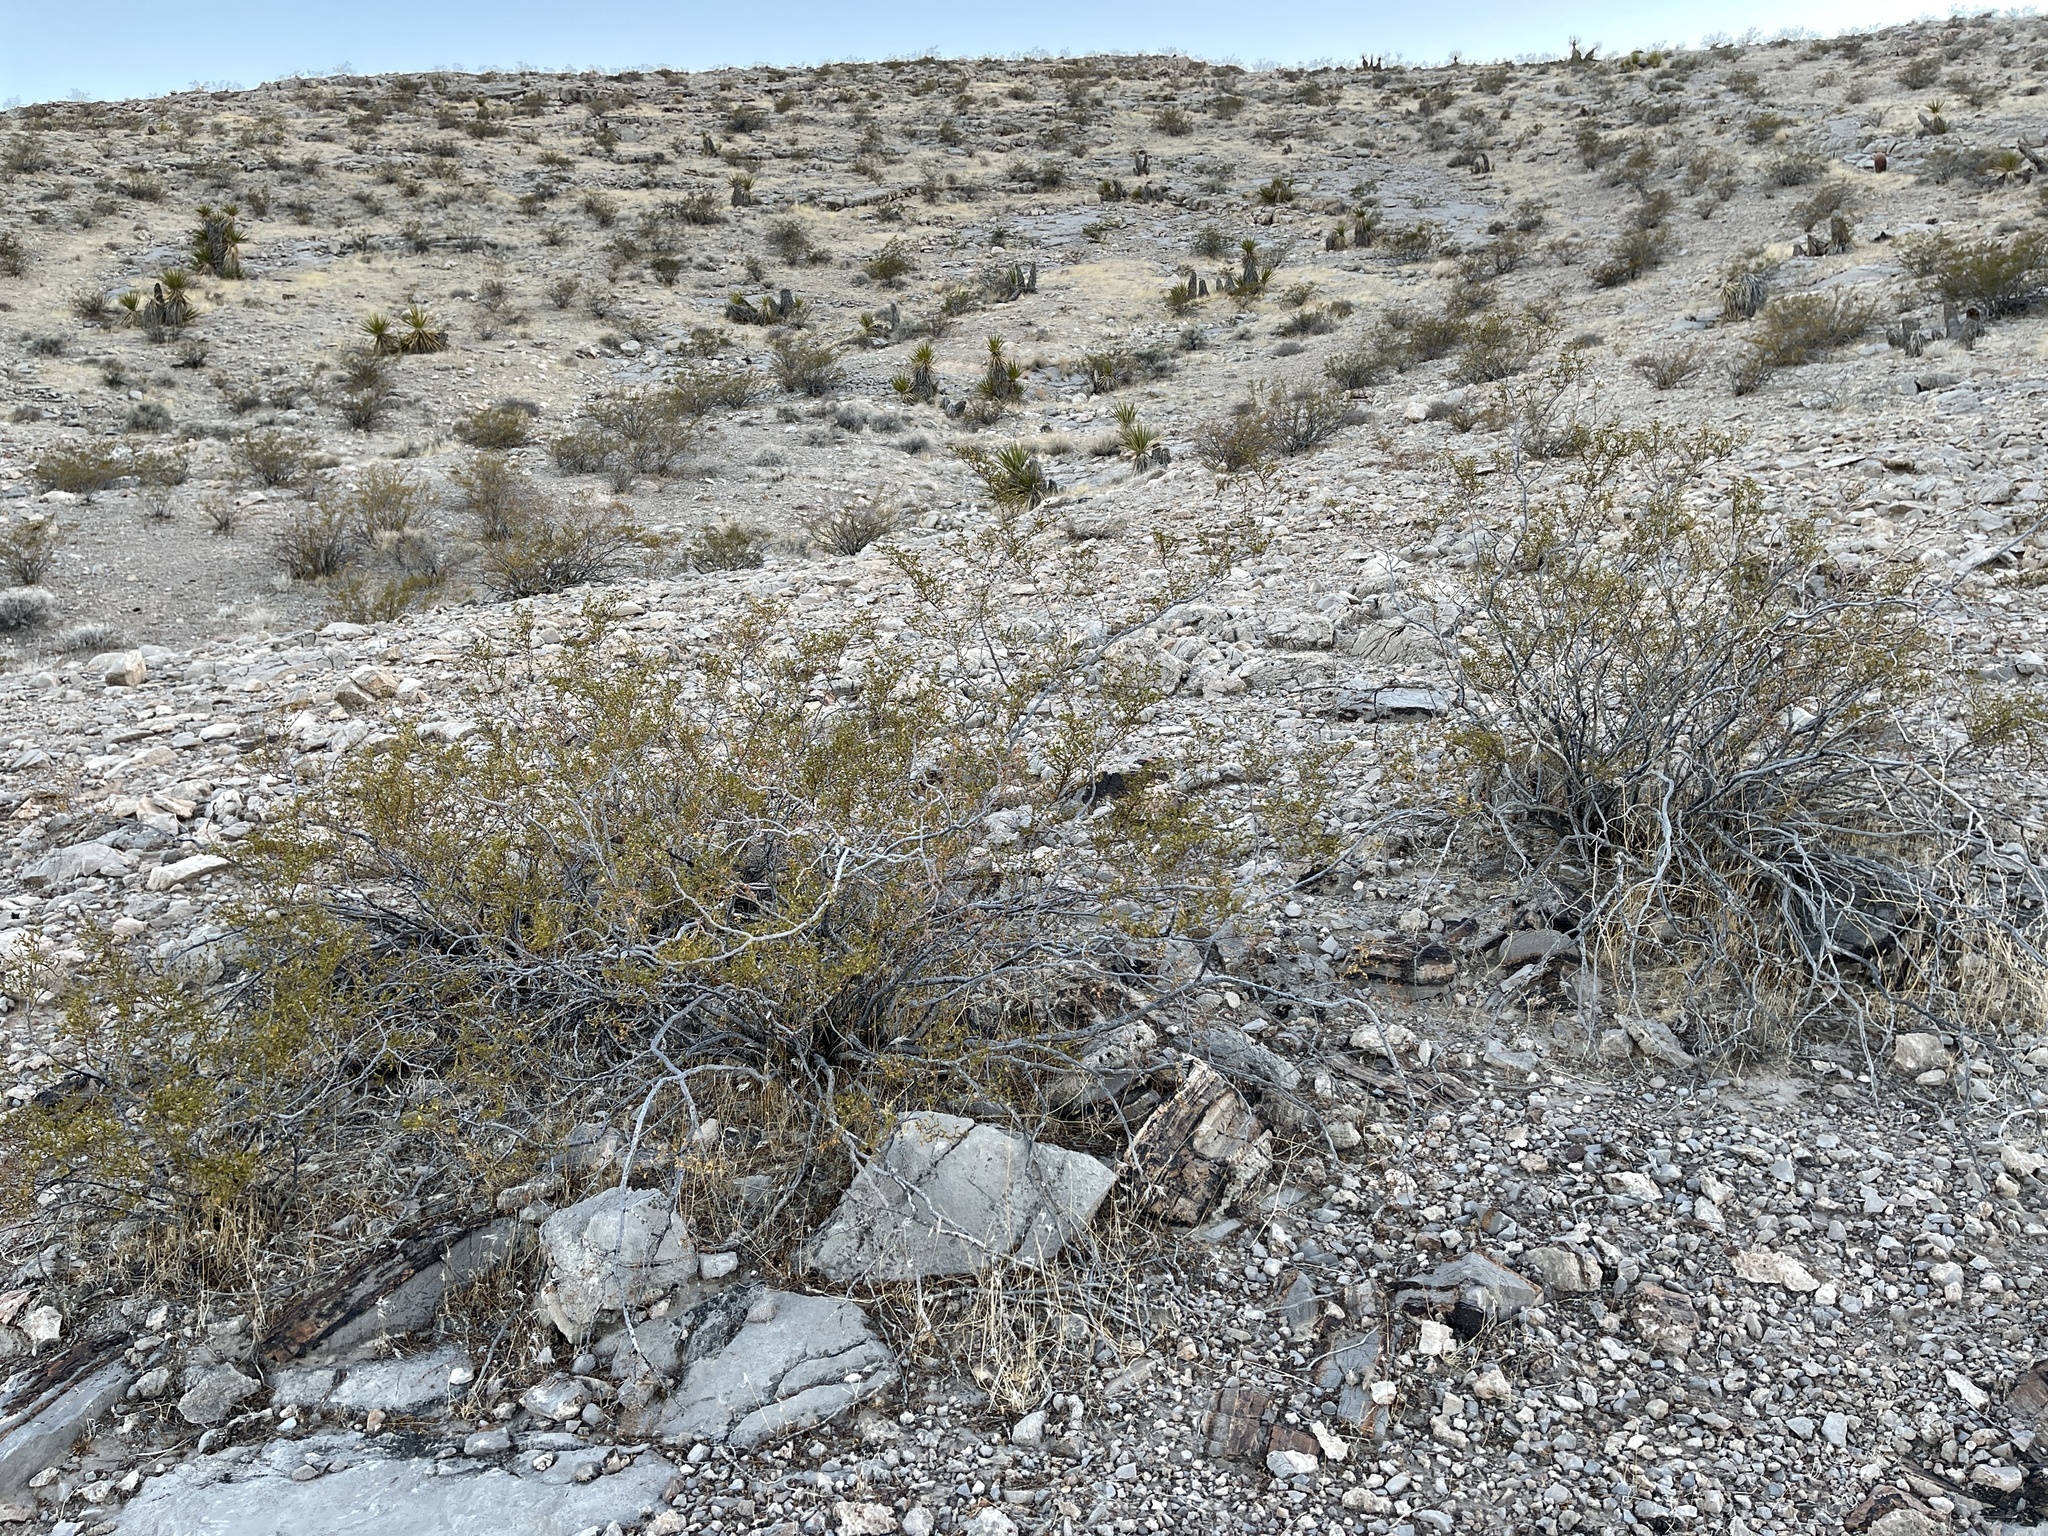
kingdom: Plantae
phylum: Tracheophyta
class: Magnoliopsida
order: Zygophyllales
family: Zygophyllaceae
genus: Larrea
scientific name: Larrea tridentata
